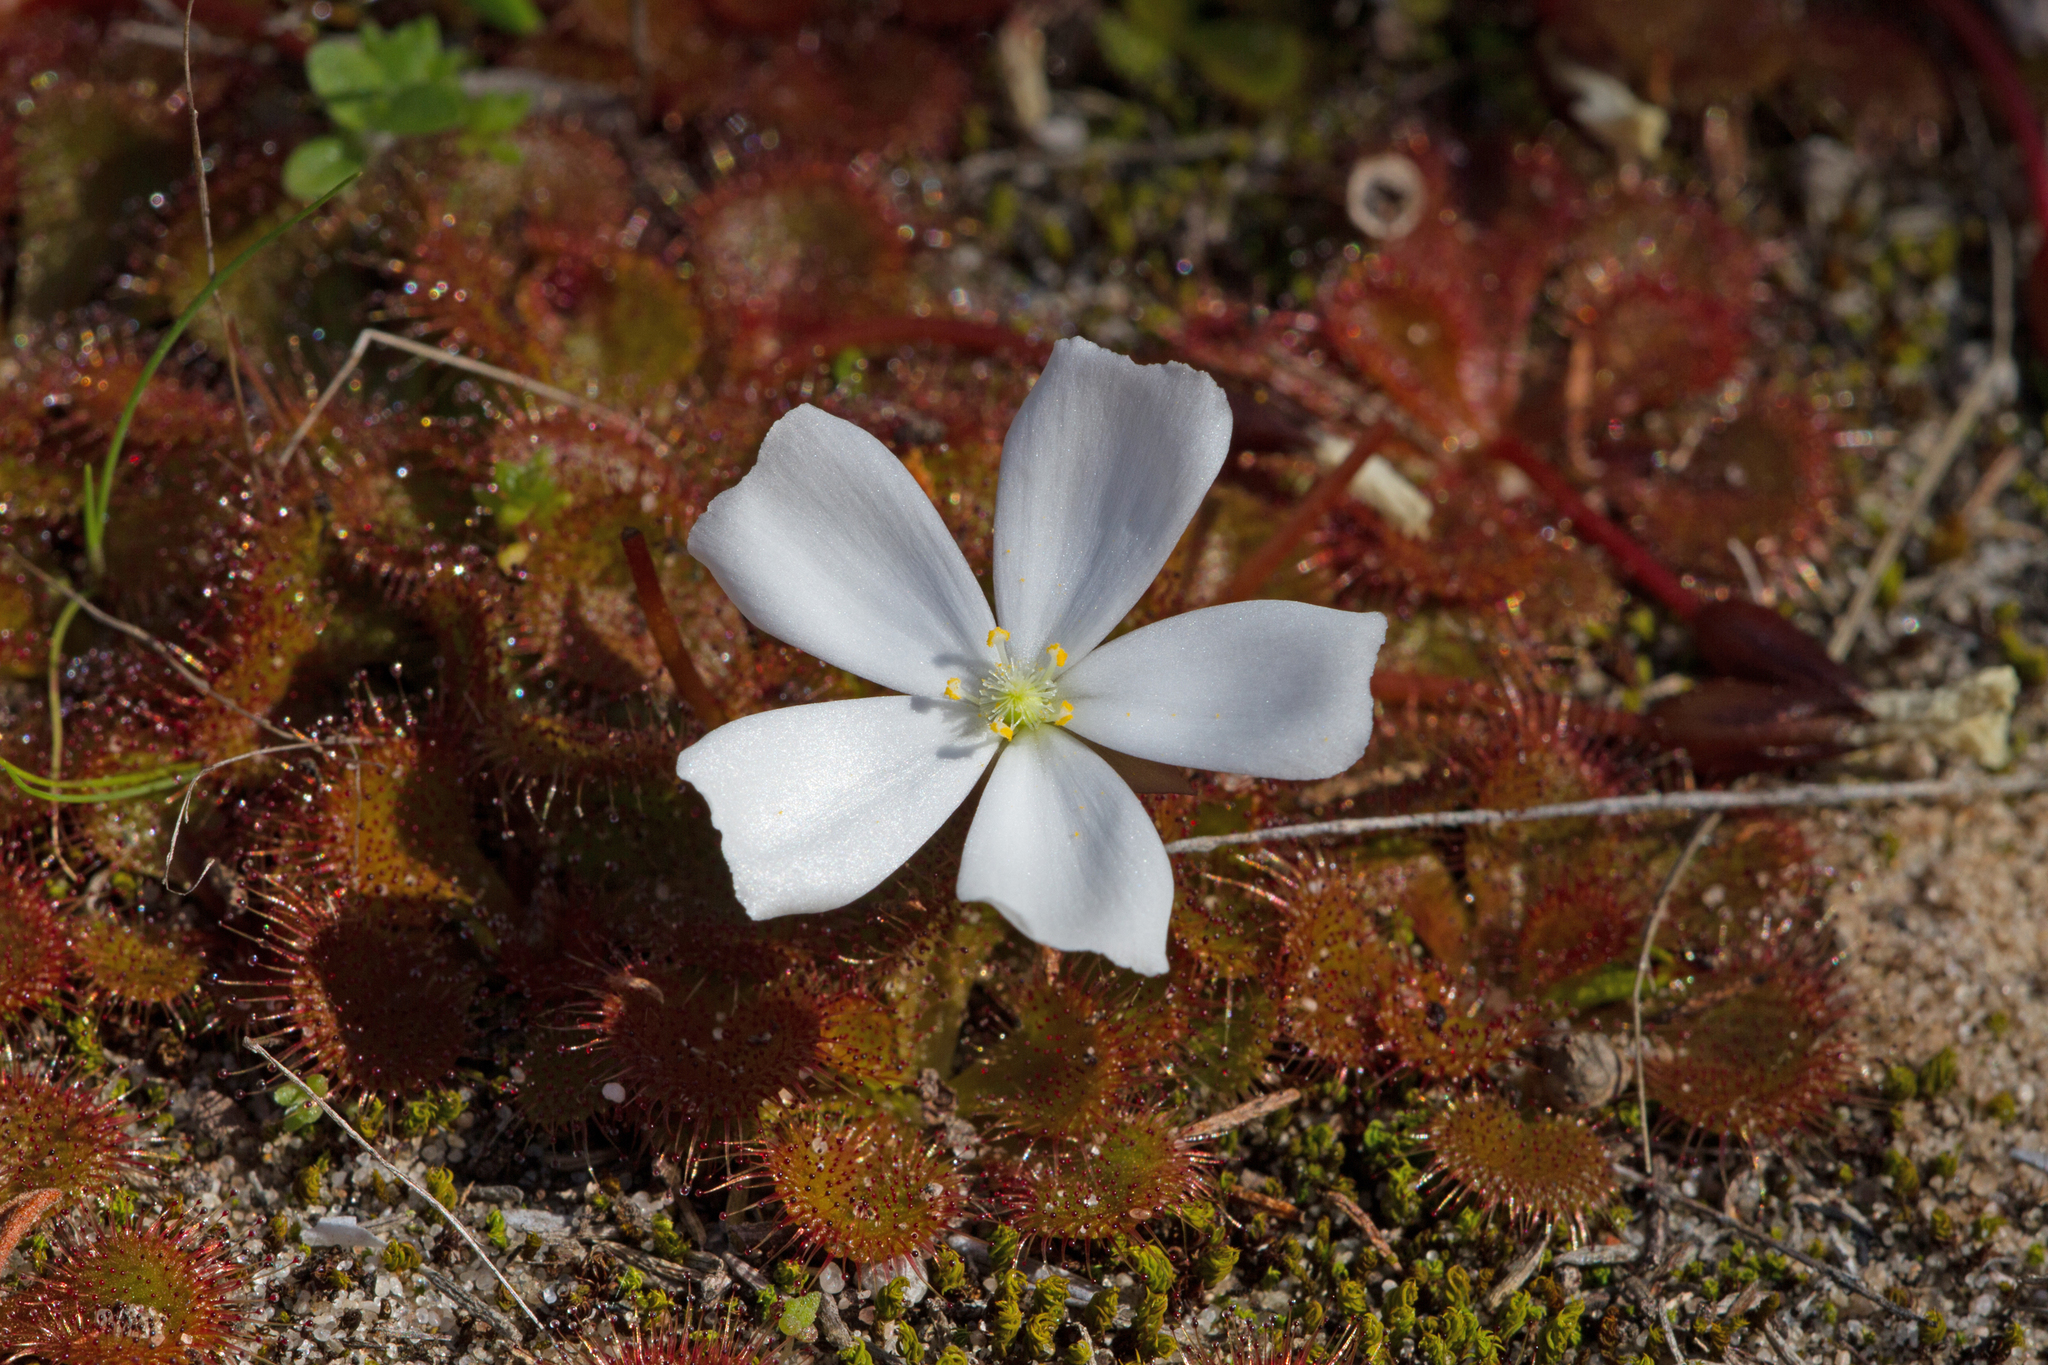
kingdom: Plantae
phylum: Tracheophyta
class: Magnoliopsida
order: Caryophyllales
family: Droseraceae
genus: Drosera
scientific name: Drosera aberrans
